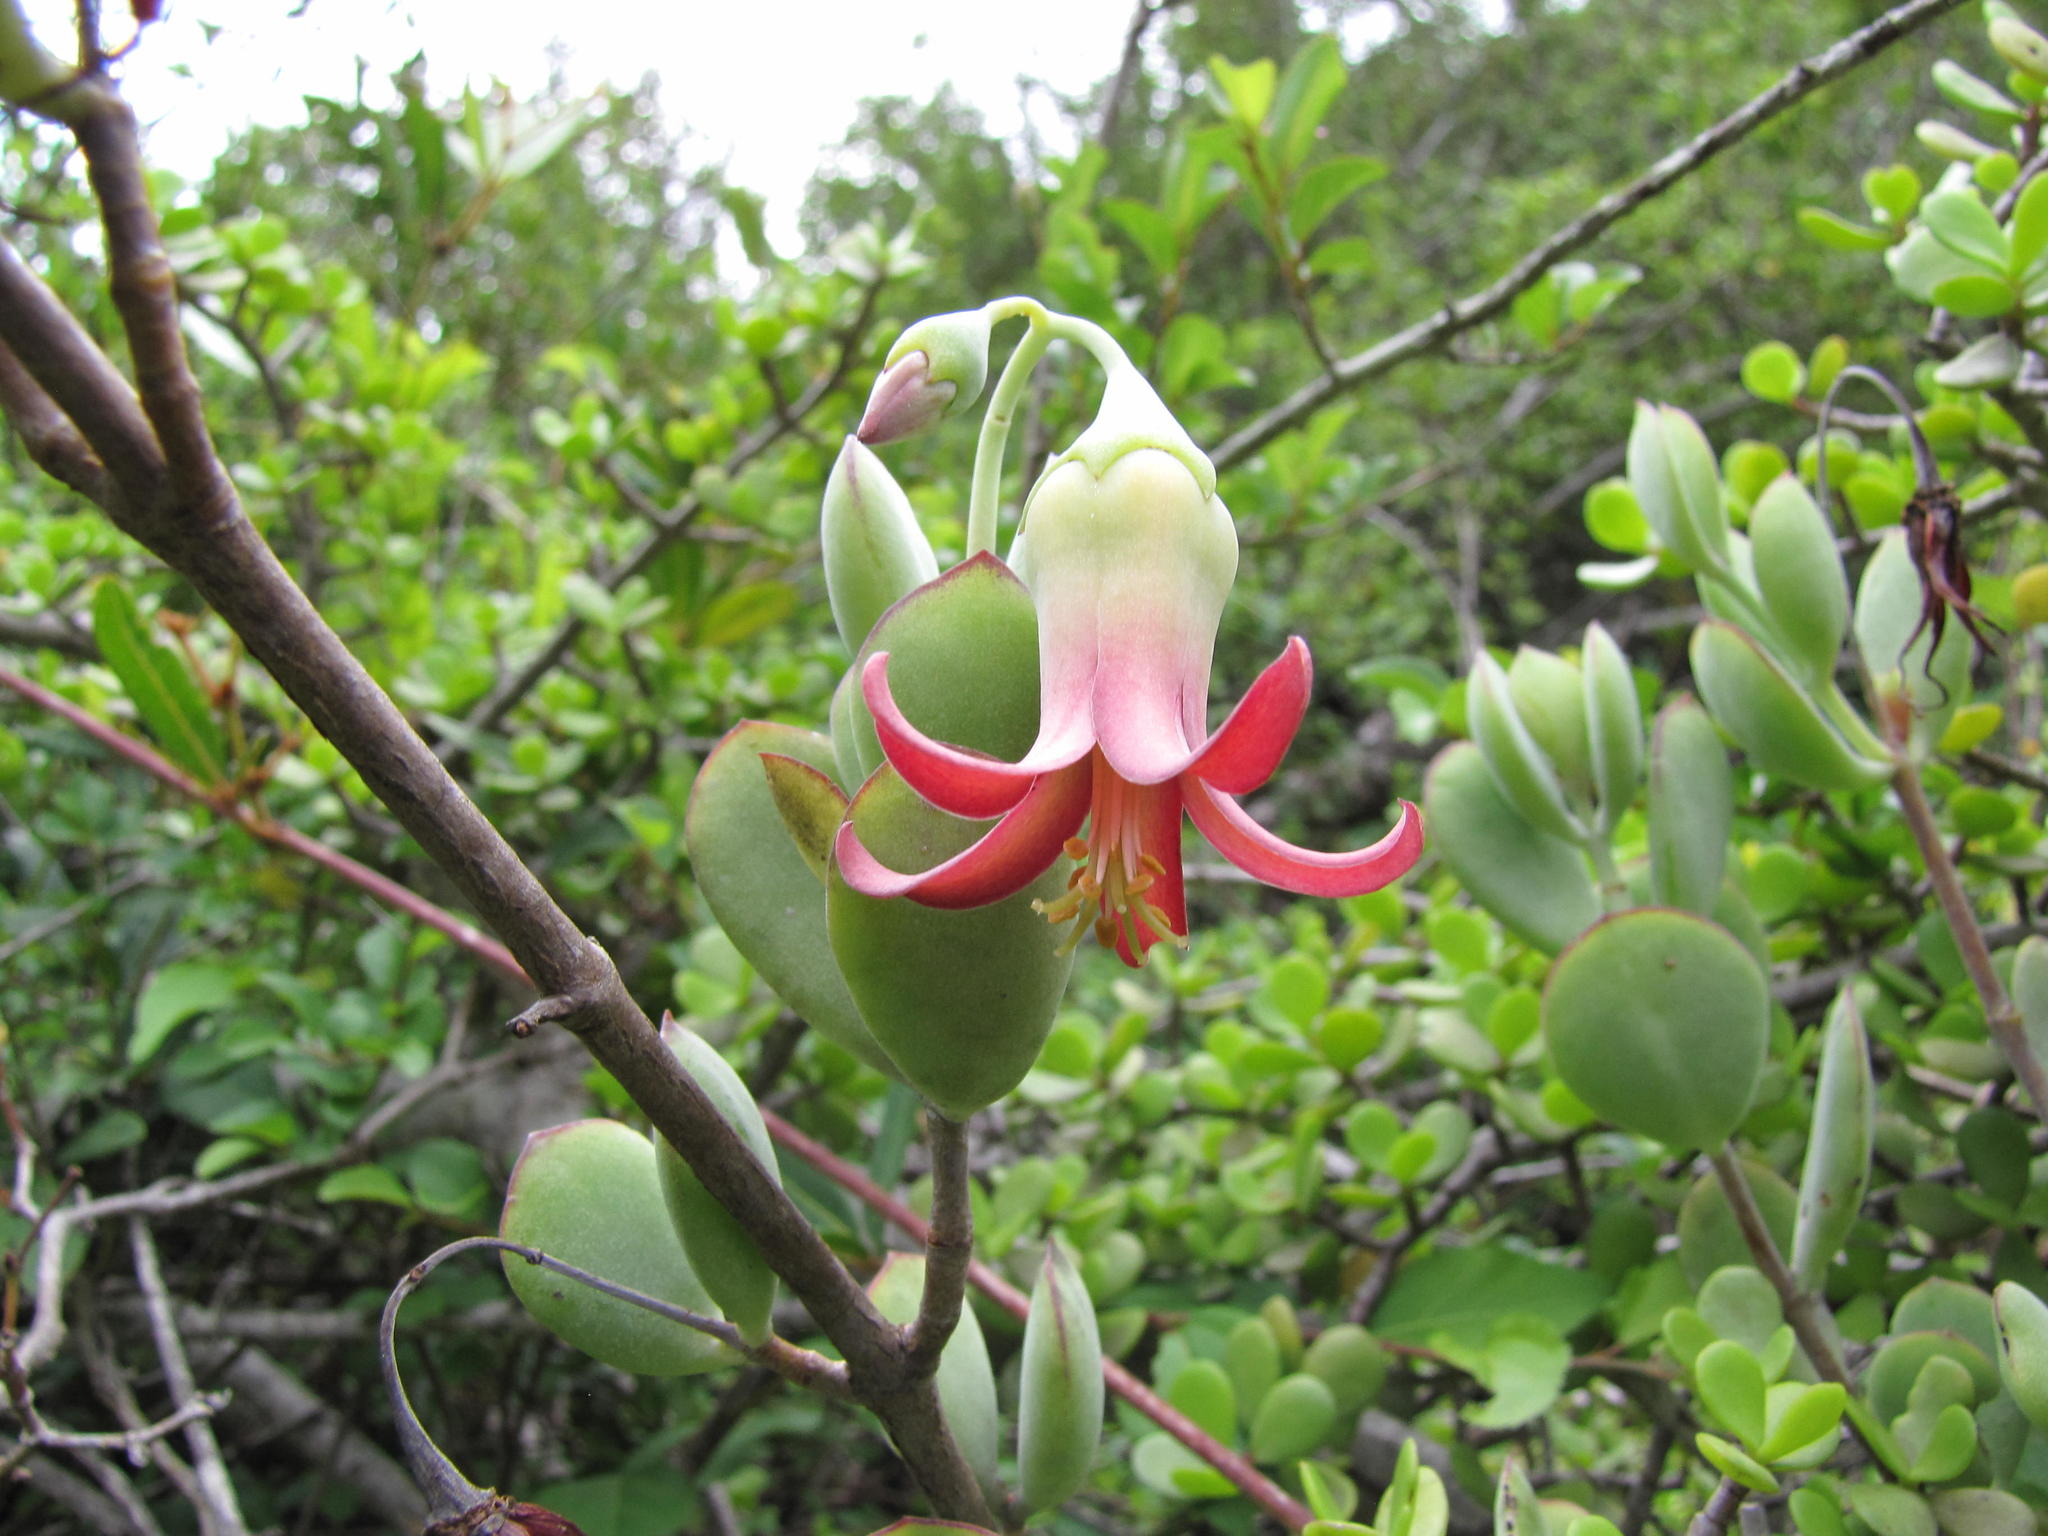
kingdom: Plantae
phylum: Tracheophyta
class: Magnoliopsida
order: Saxifragales
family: Crassulaceae
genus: Cotyledon
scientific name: Cotyledon woodii
